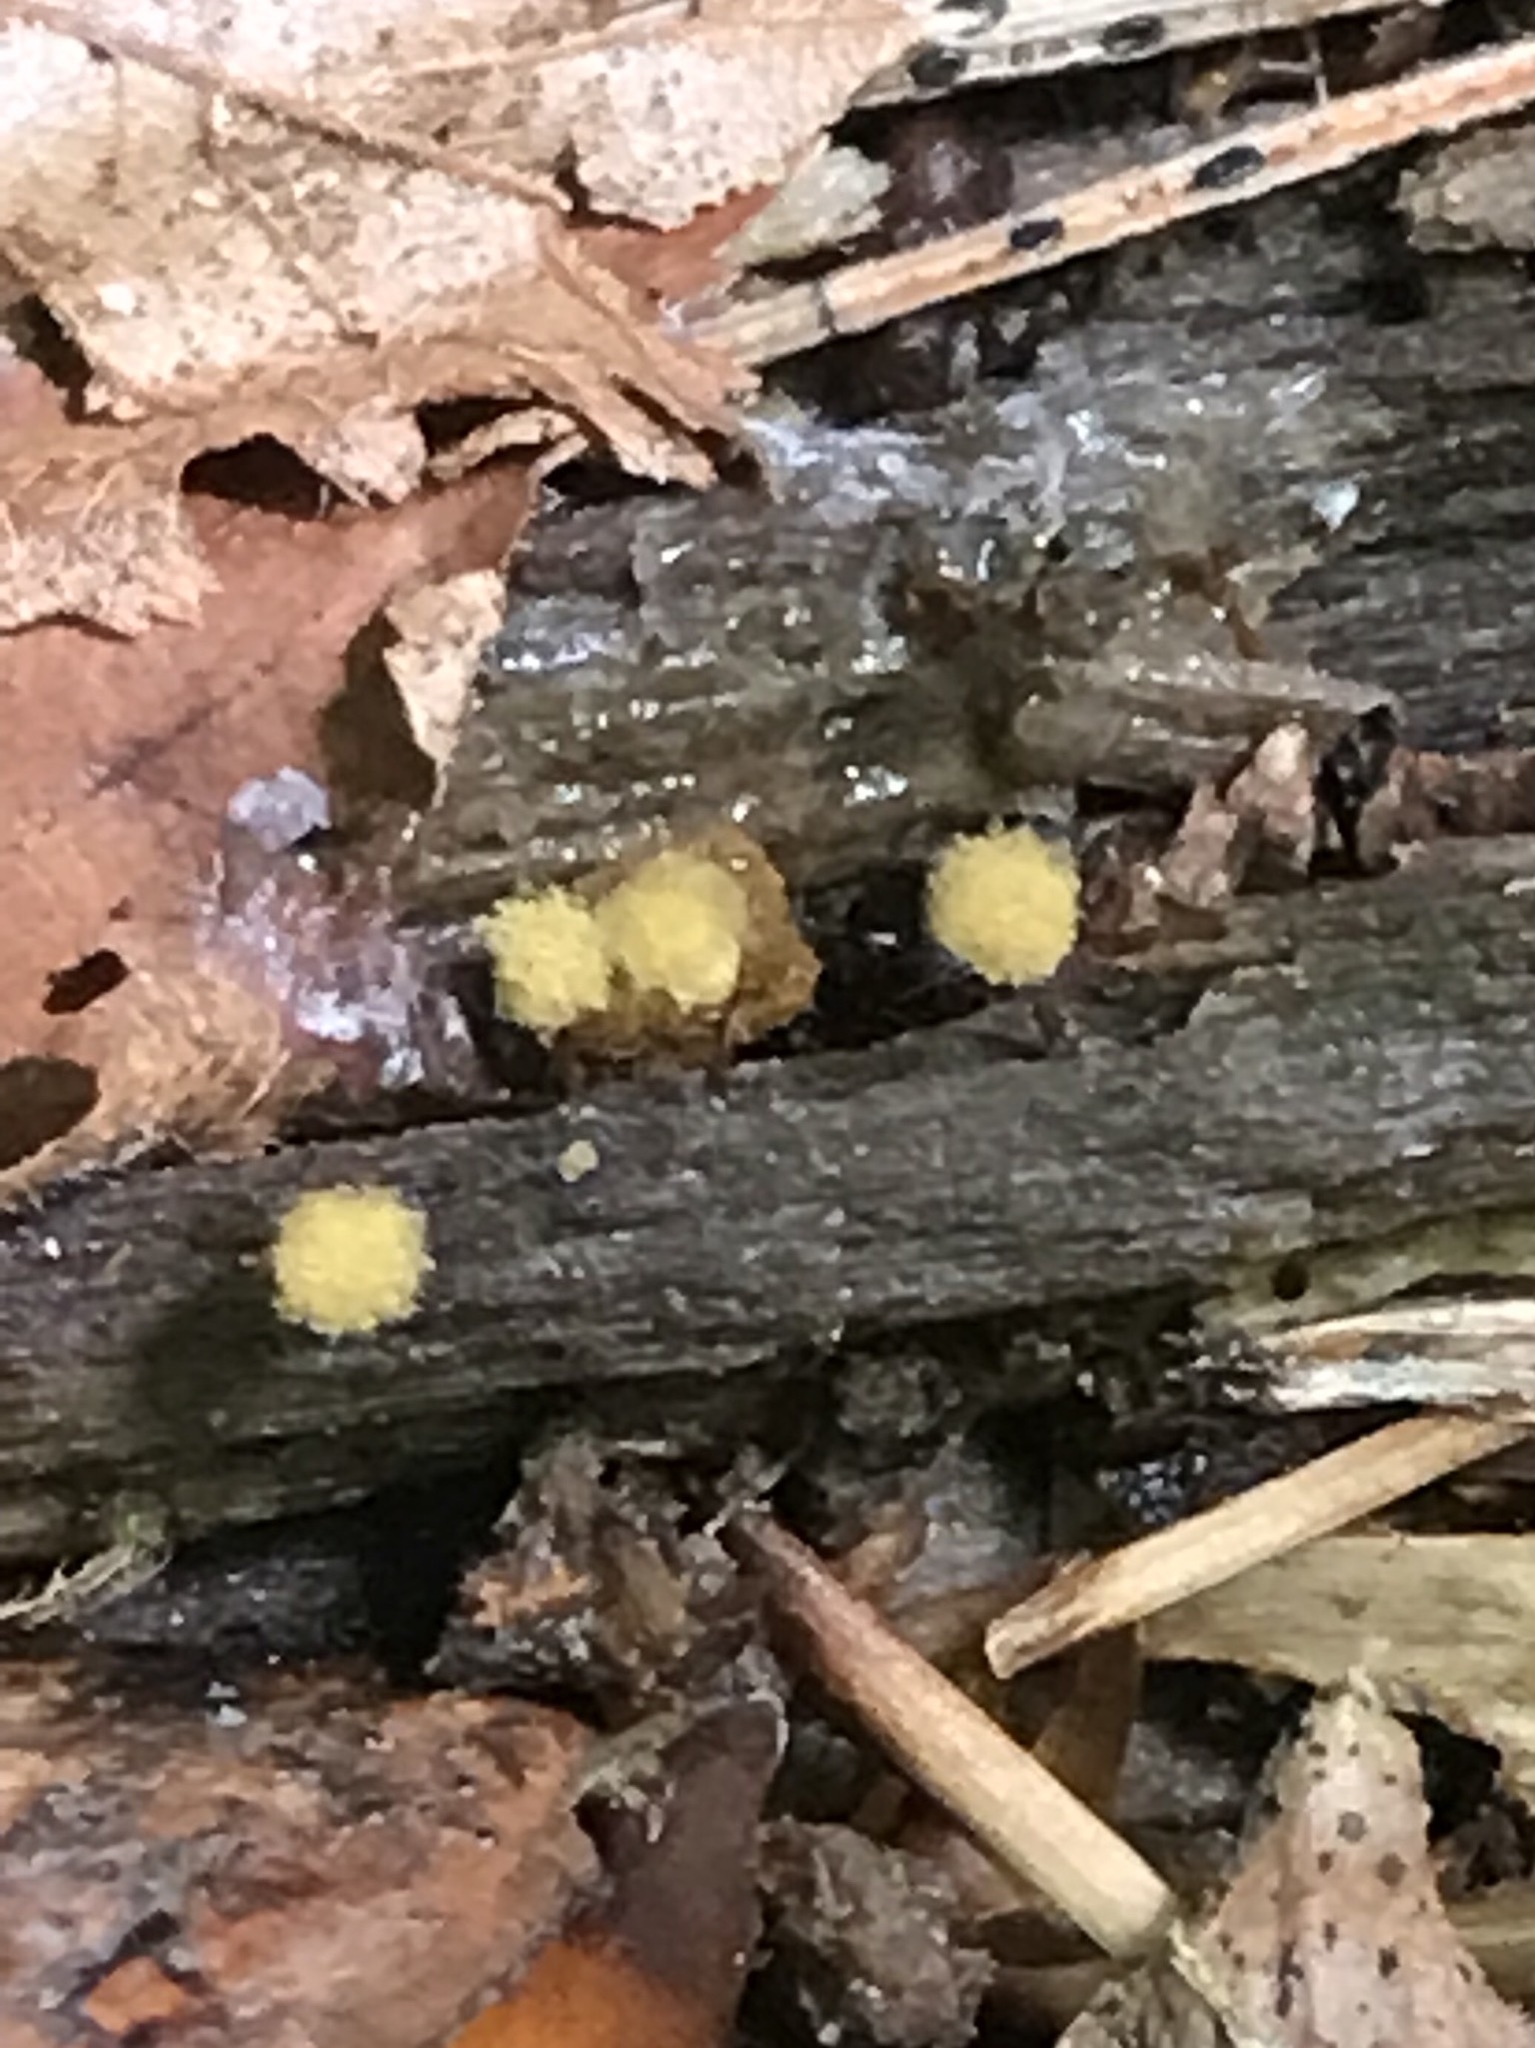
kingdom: Protozoa
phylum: Mycetozoa
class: Myxomycetes
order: Trichiales
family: Arcyriaceae
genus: Hemitrichia
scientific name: Hemitrichia calyculata
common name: Push pin slime mold
